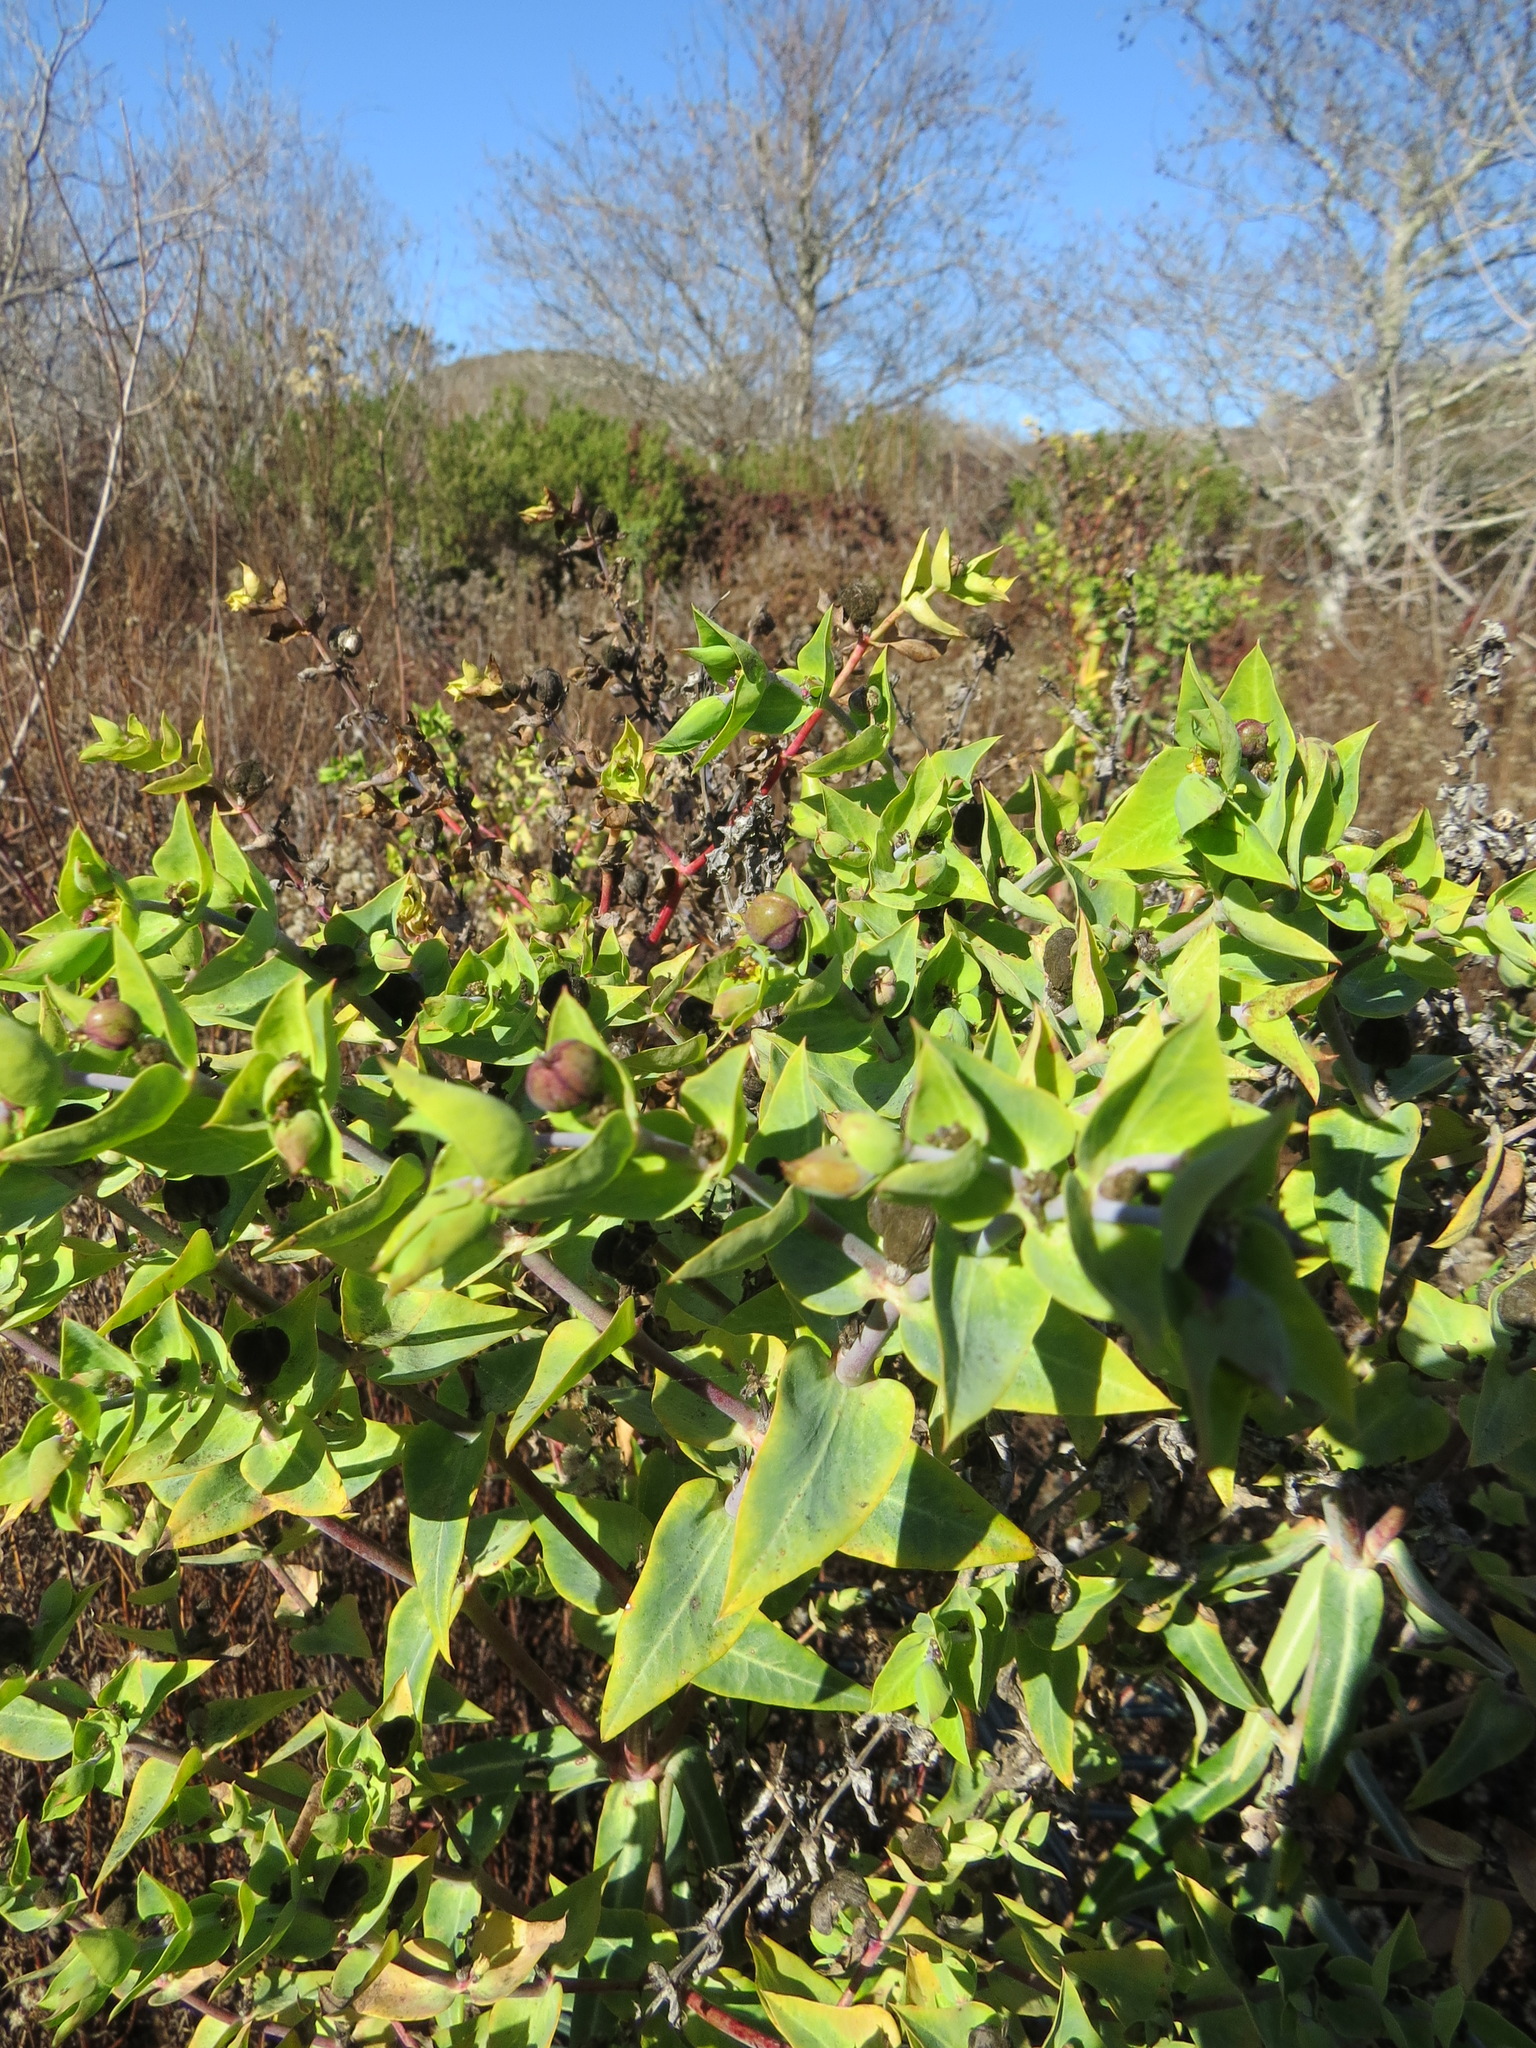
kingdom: Plantae
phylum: Tracheophyta
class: Magnoliopsida
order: Malpighiales
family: Euphorbiaceae
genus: Euphorbia
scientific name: Euphorbia lathyris
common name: Caper spurge
